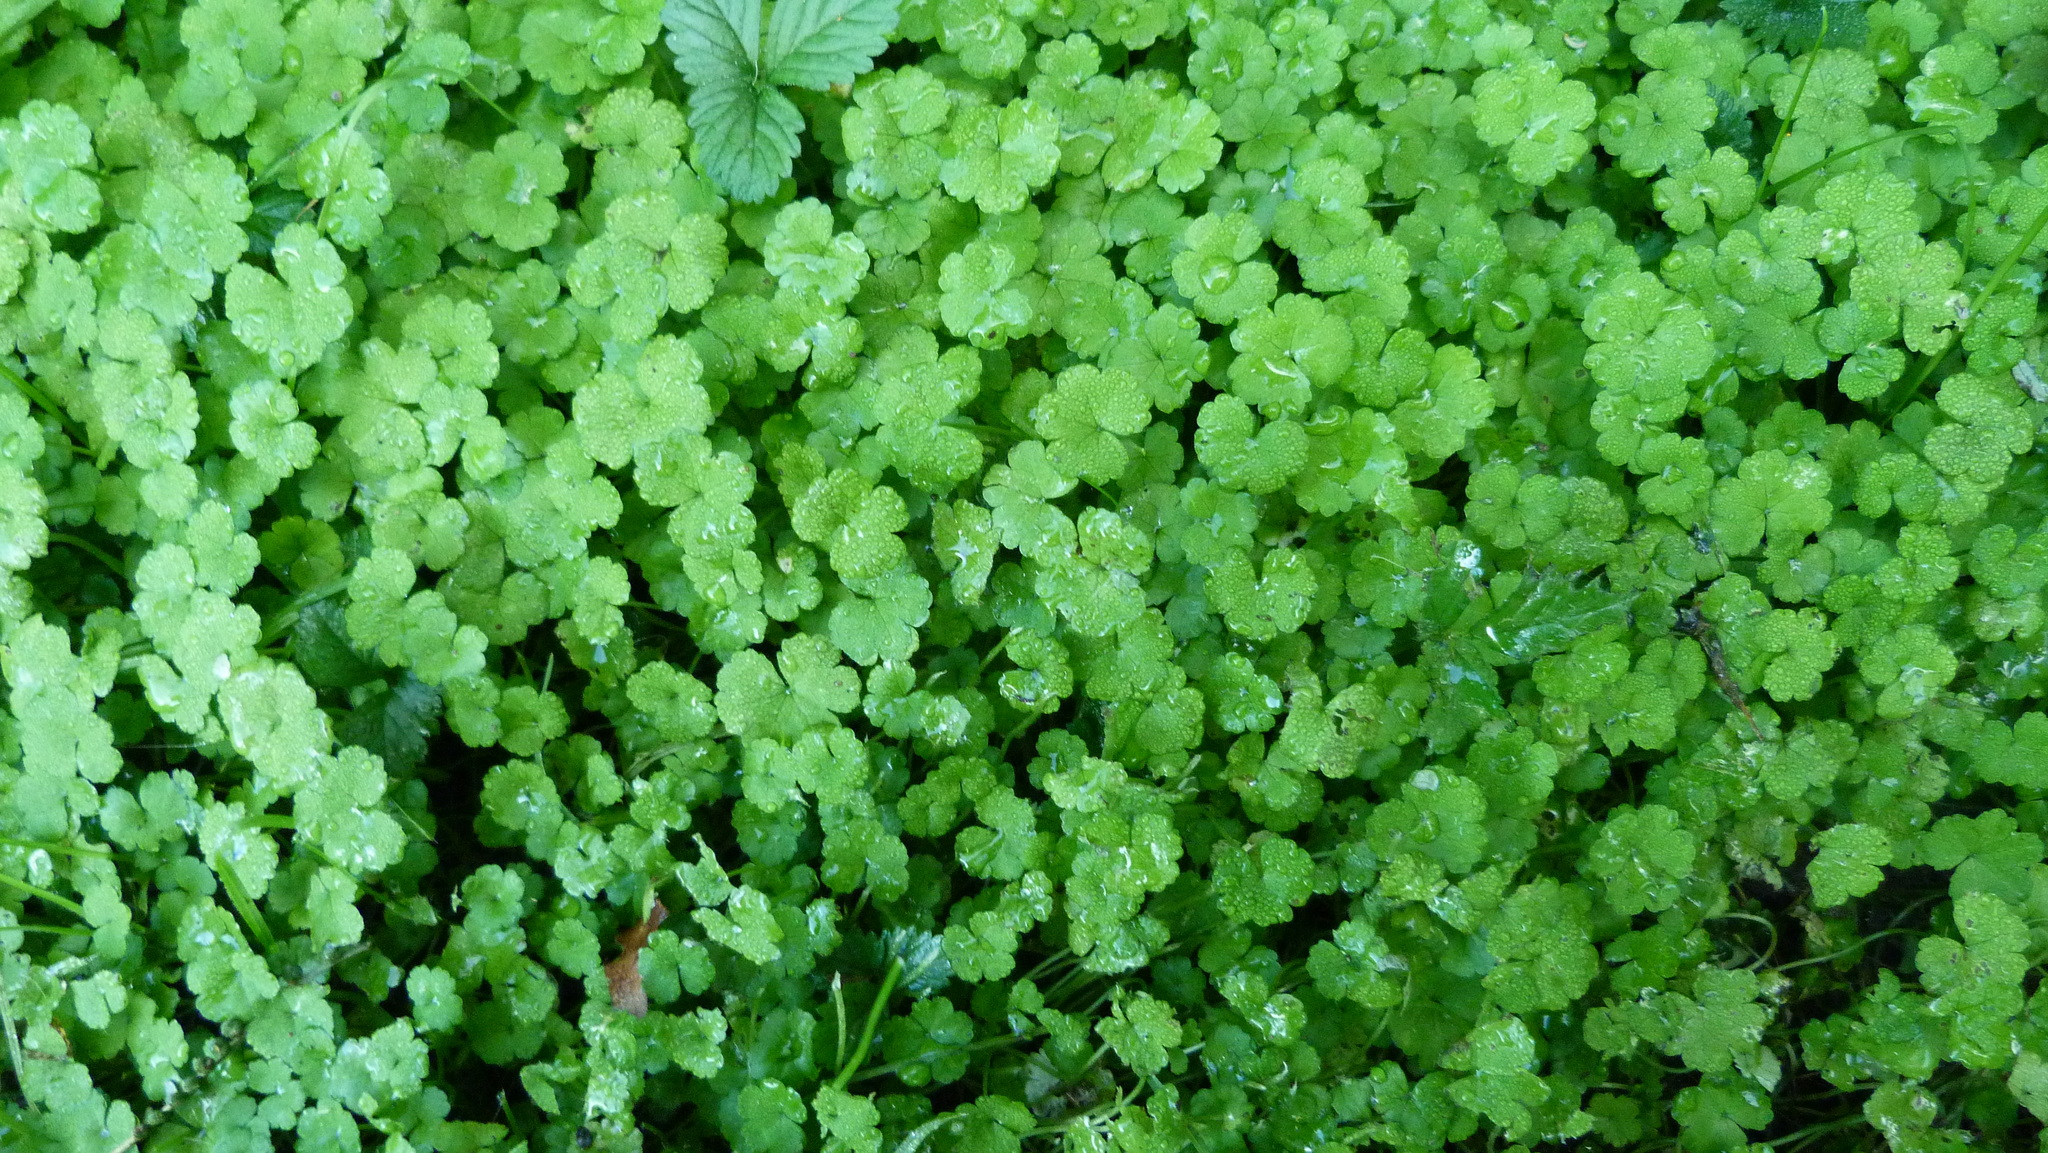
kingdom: Plantae
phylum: Tracheophyta
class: Magnoliopsida
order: Apiales
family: Araliaceae
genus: Hydrocotyle
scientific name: Hydrocotyle heteromeria
